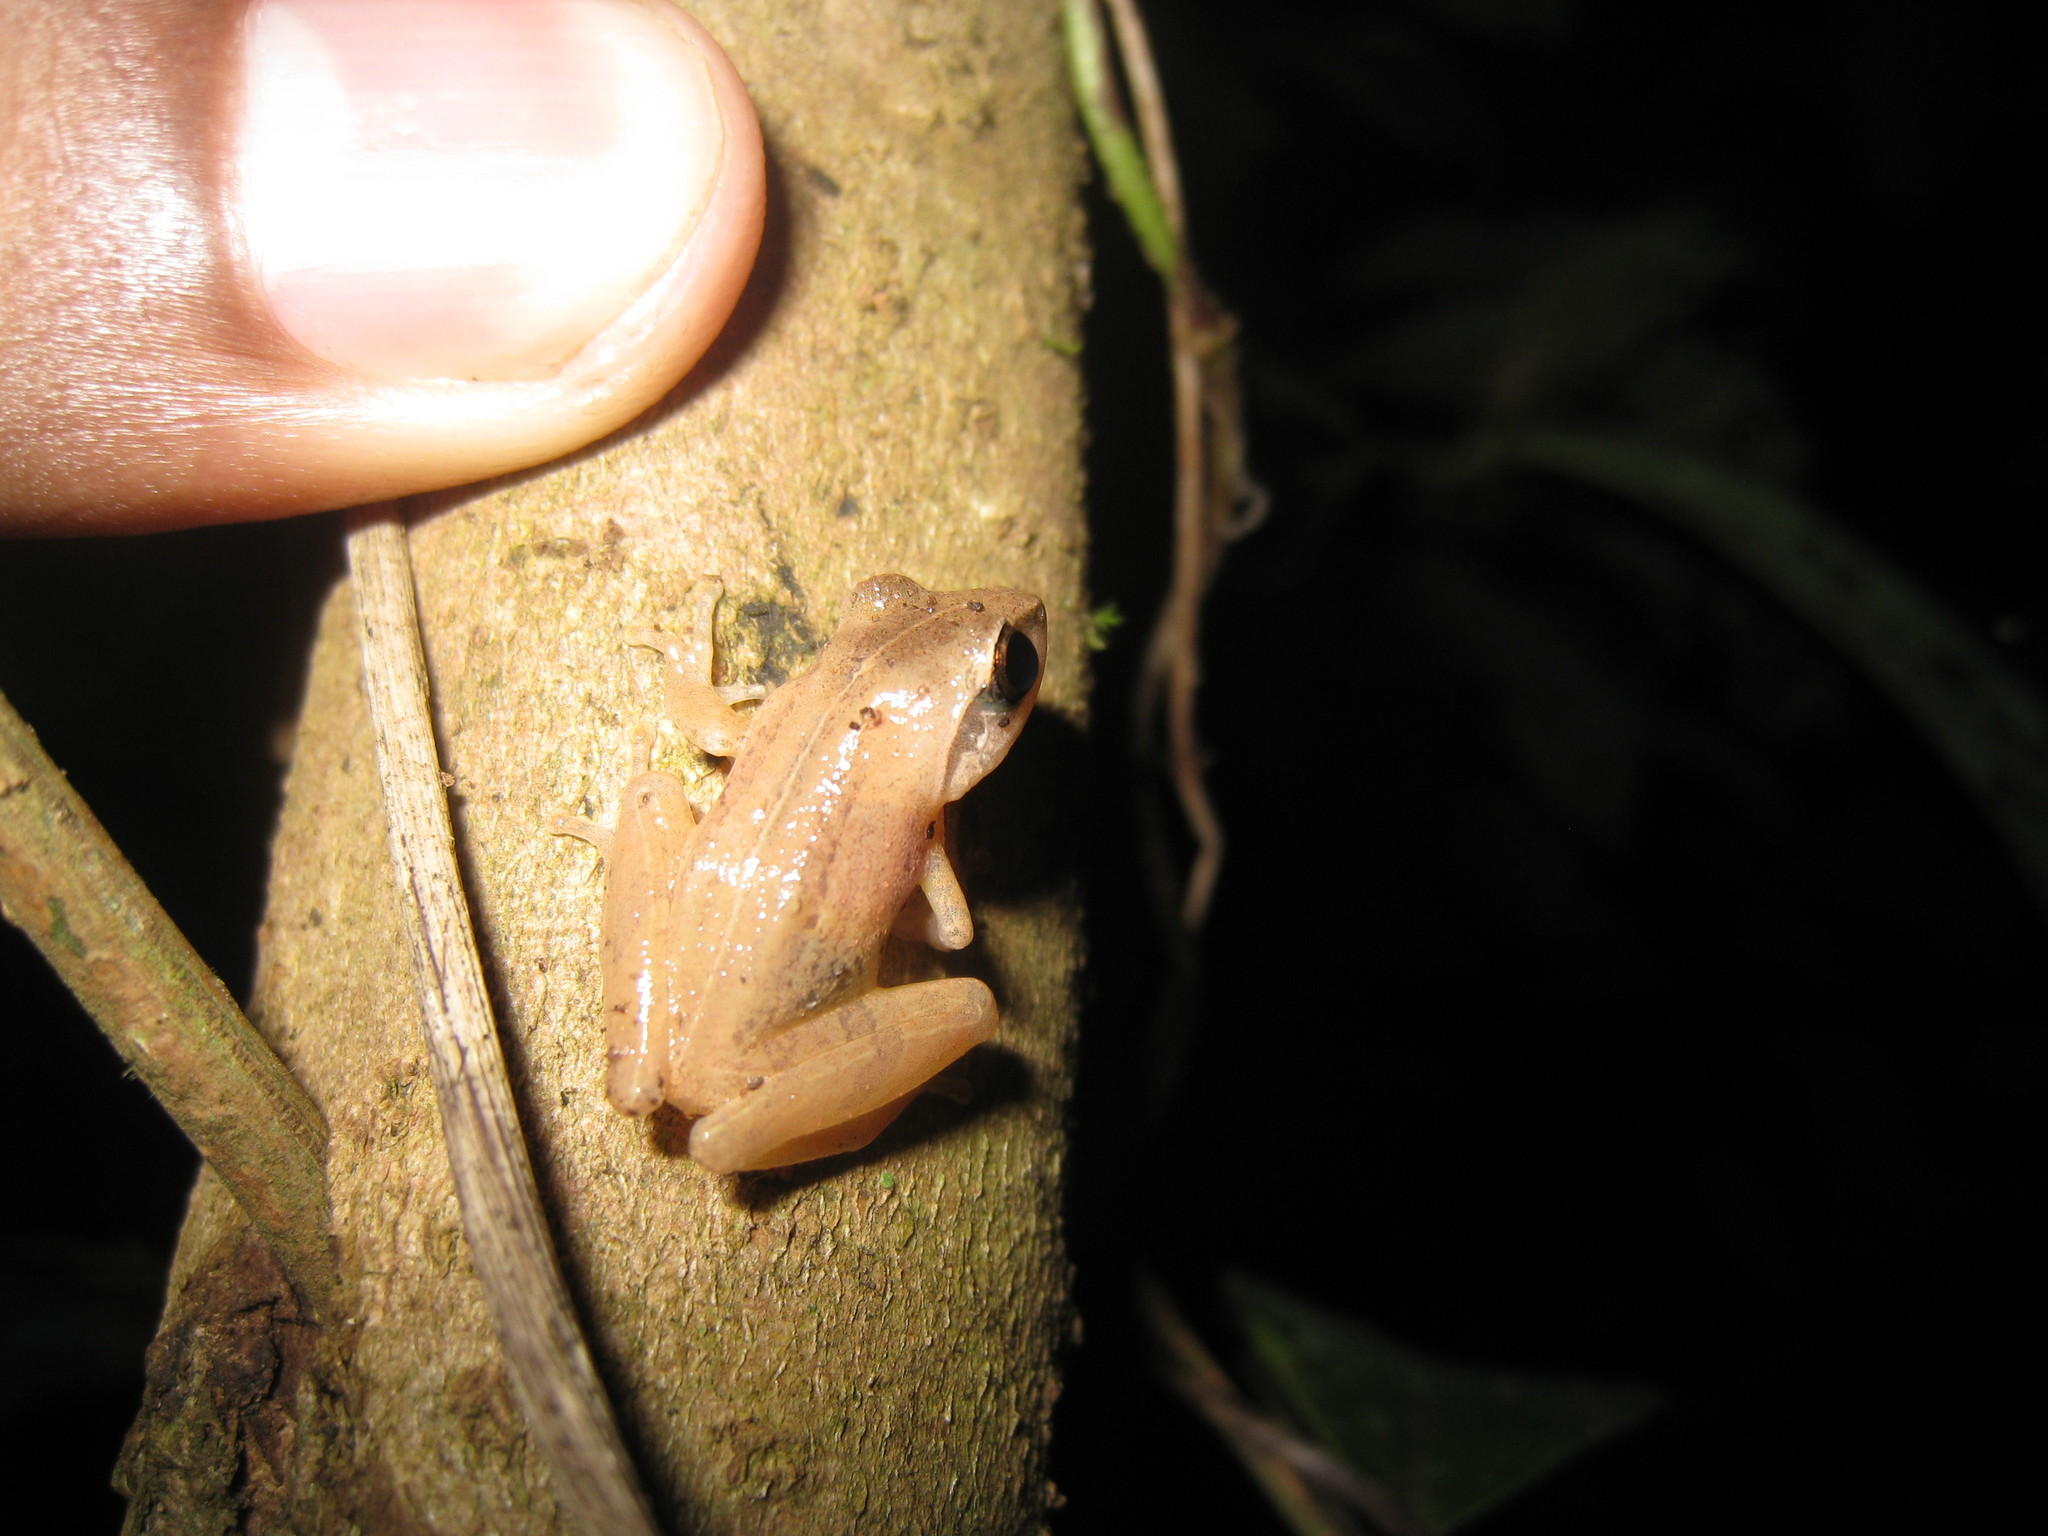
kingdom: Animalia
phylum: Chordata
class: Amphibia
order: Anura
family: Rhacophoridae
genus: Pseudophilautus
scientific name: Pseudophilautus wynaadensis
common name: Dark-eared bush frog
